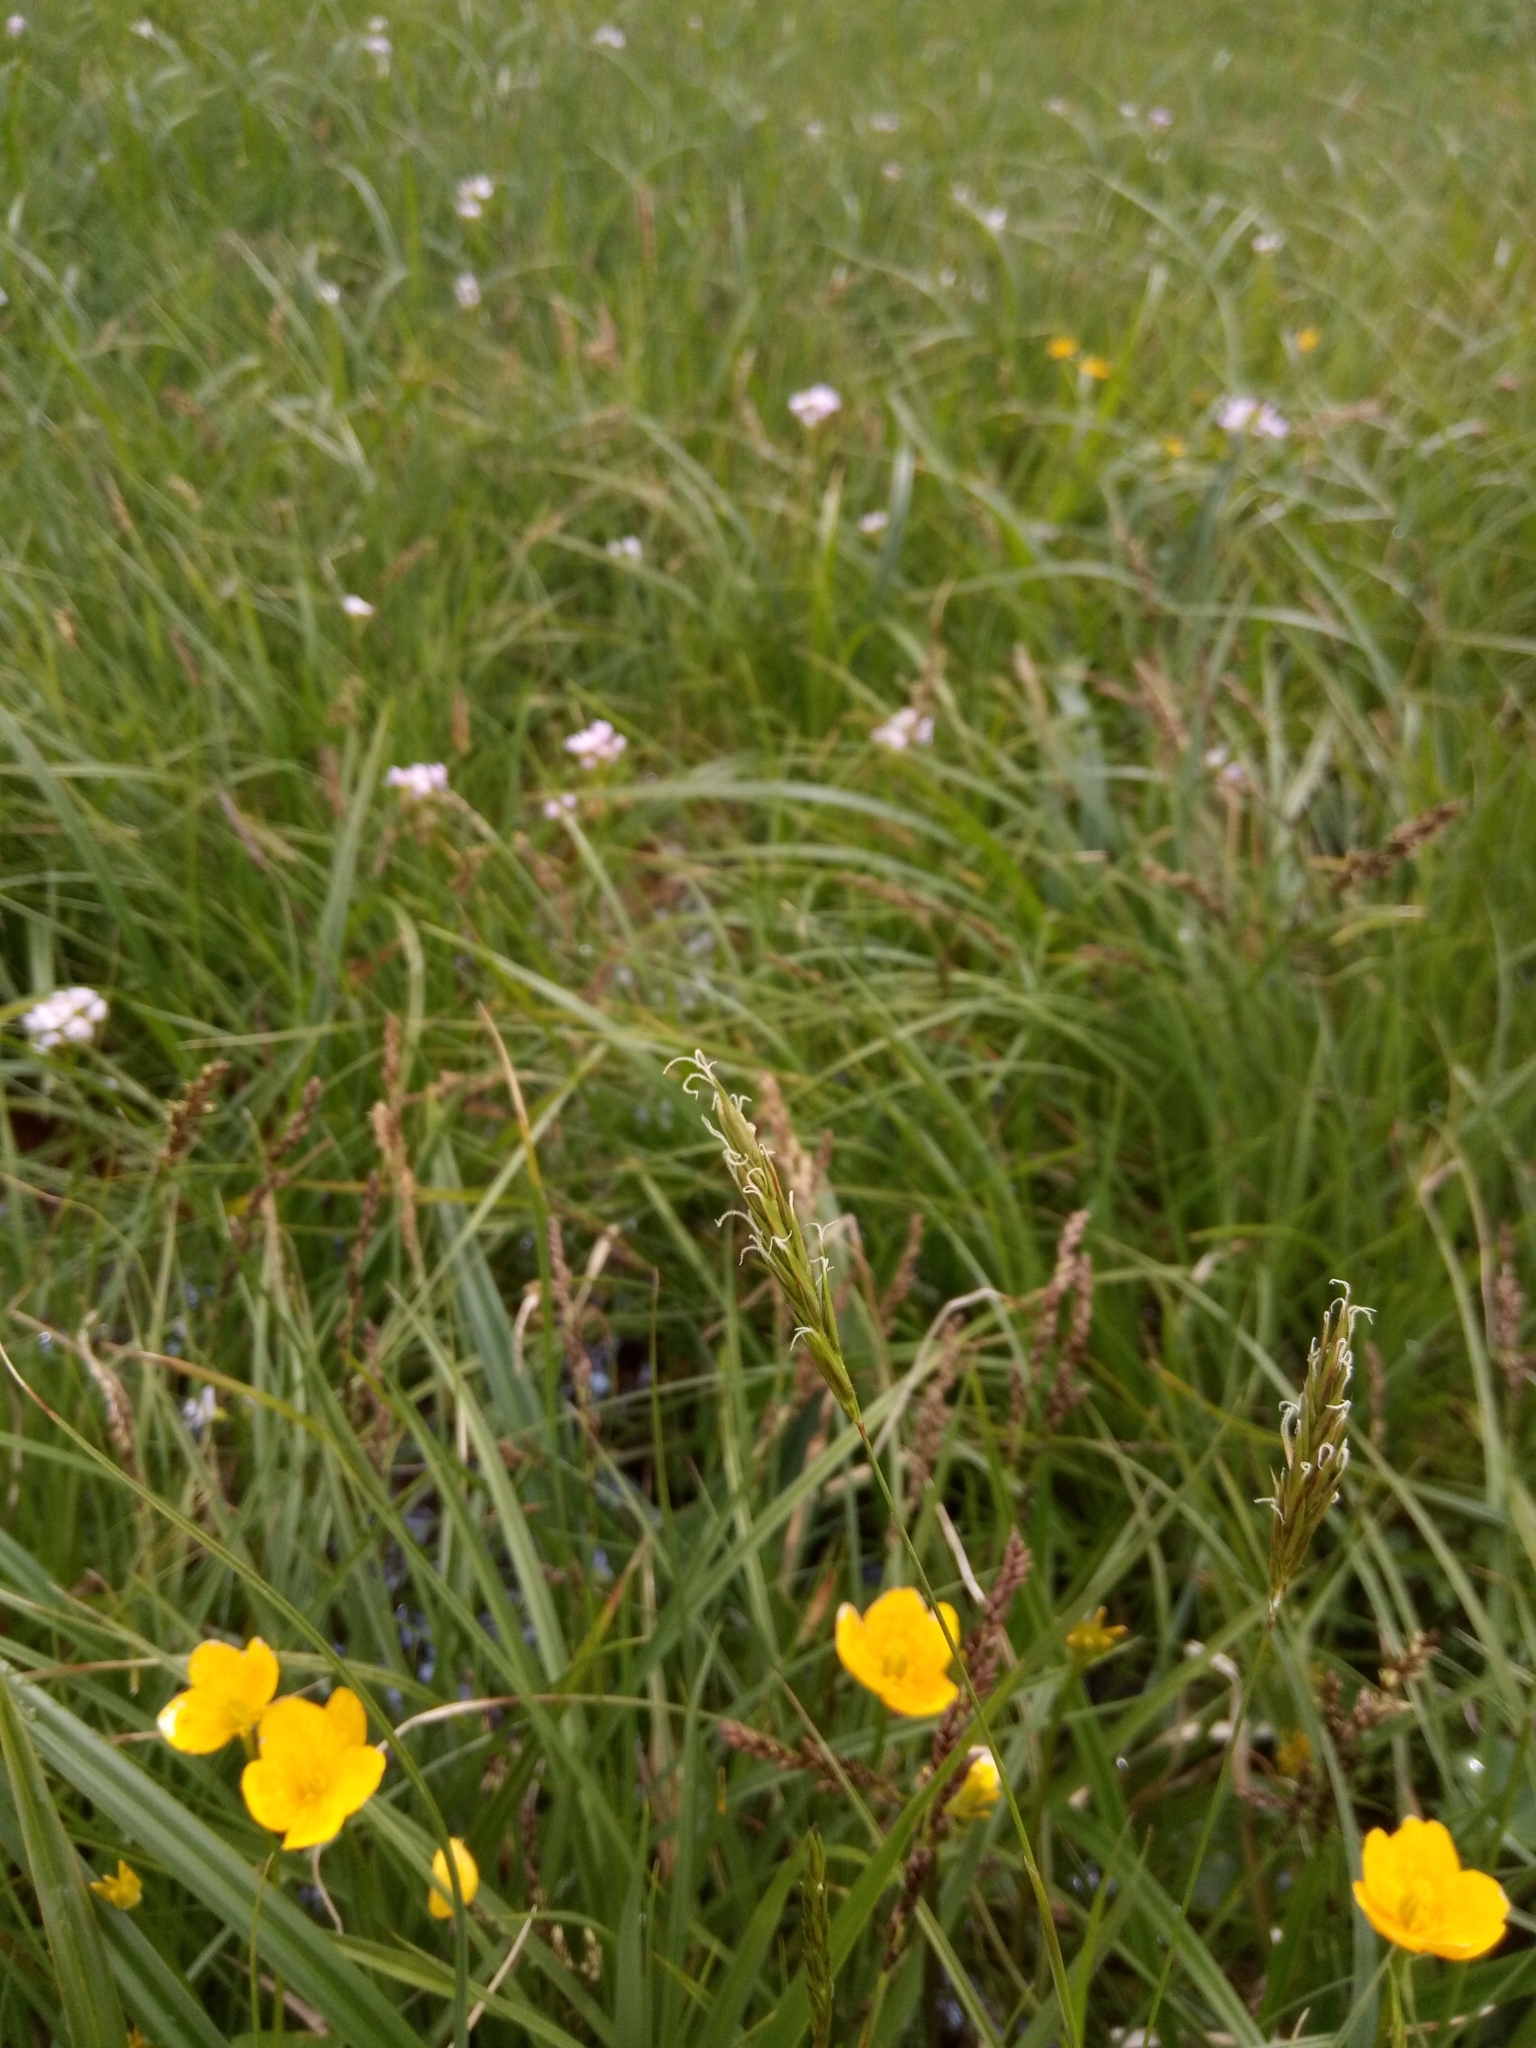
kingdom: Plantae
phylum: Tracheophyta
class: Liliopsida
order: Poales
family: Poaceae
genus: Anthoxanthum
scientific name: Anthoxanthum odoratum
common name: Sweet vernalgrass
